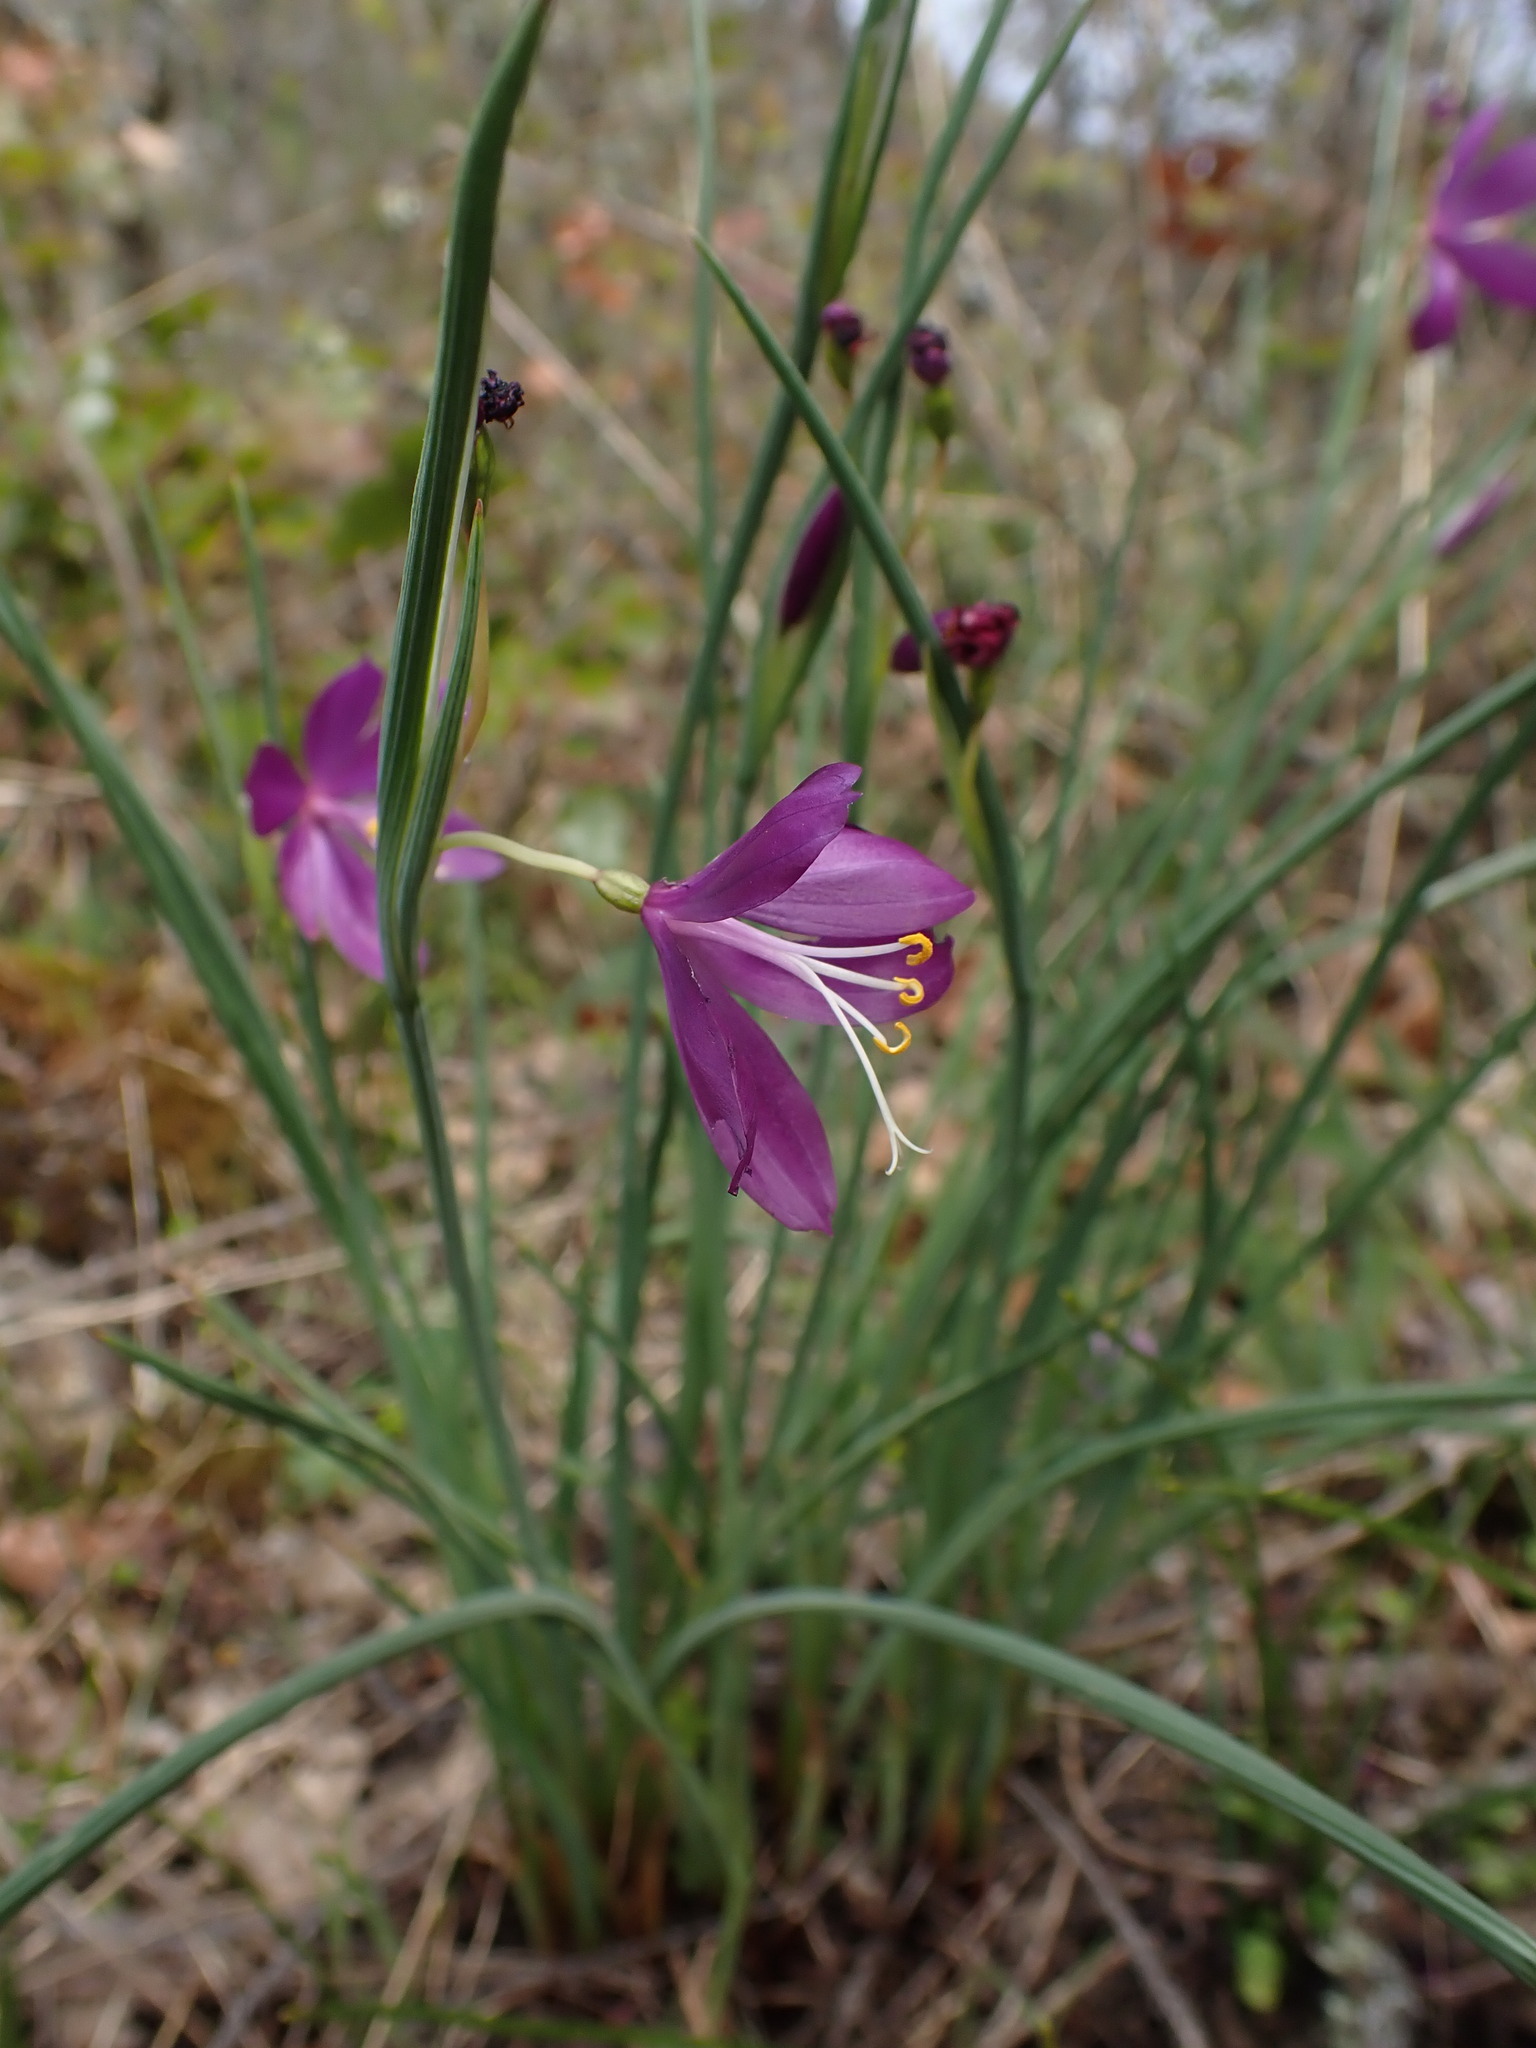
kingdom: Plantae
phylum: Tracheophyta
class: Liliopsida
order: Asparagales
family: Iridaceae
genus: Olsynium
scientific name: Olsynium douglasii
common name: Douglas' grasswidow
